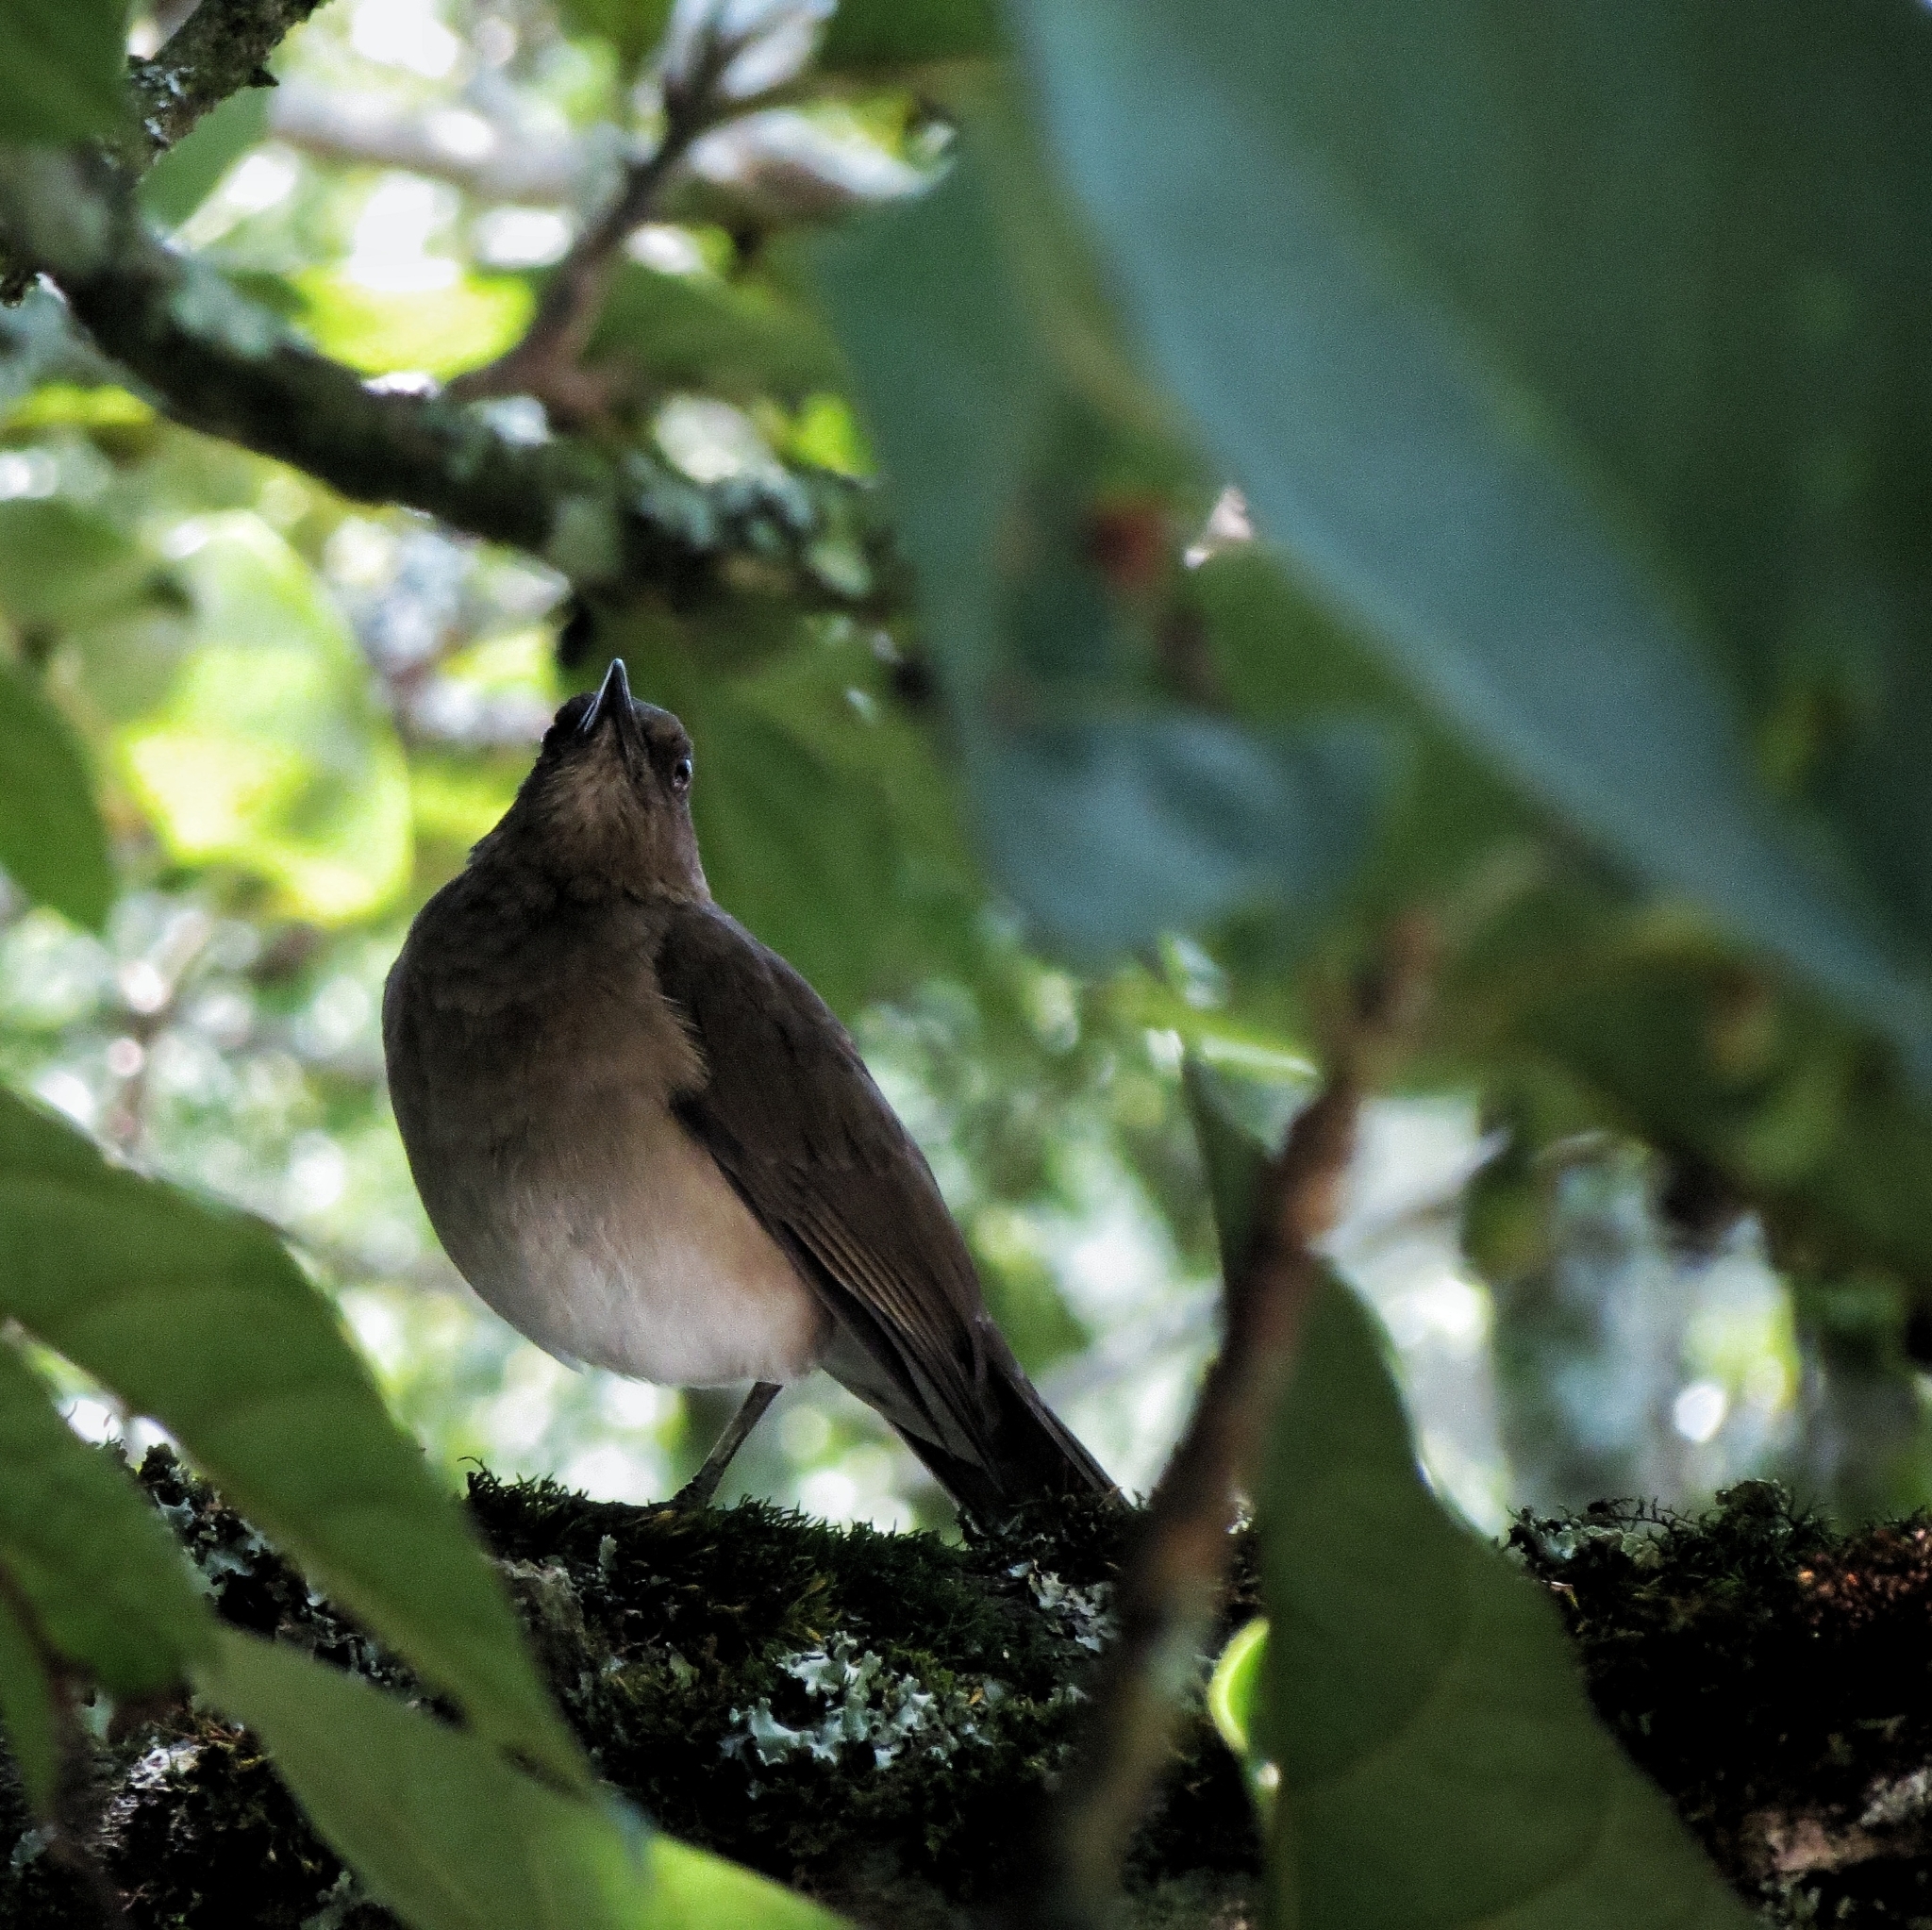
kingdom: Animalia
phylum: Chordata
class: Aves
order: Passeriformes
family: Turdidae
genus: Turdus
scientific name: Turdus ignobilis
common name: Black-billed thrush
